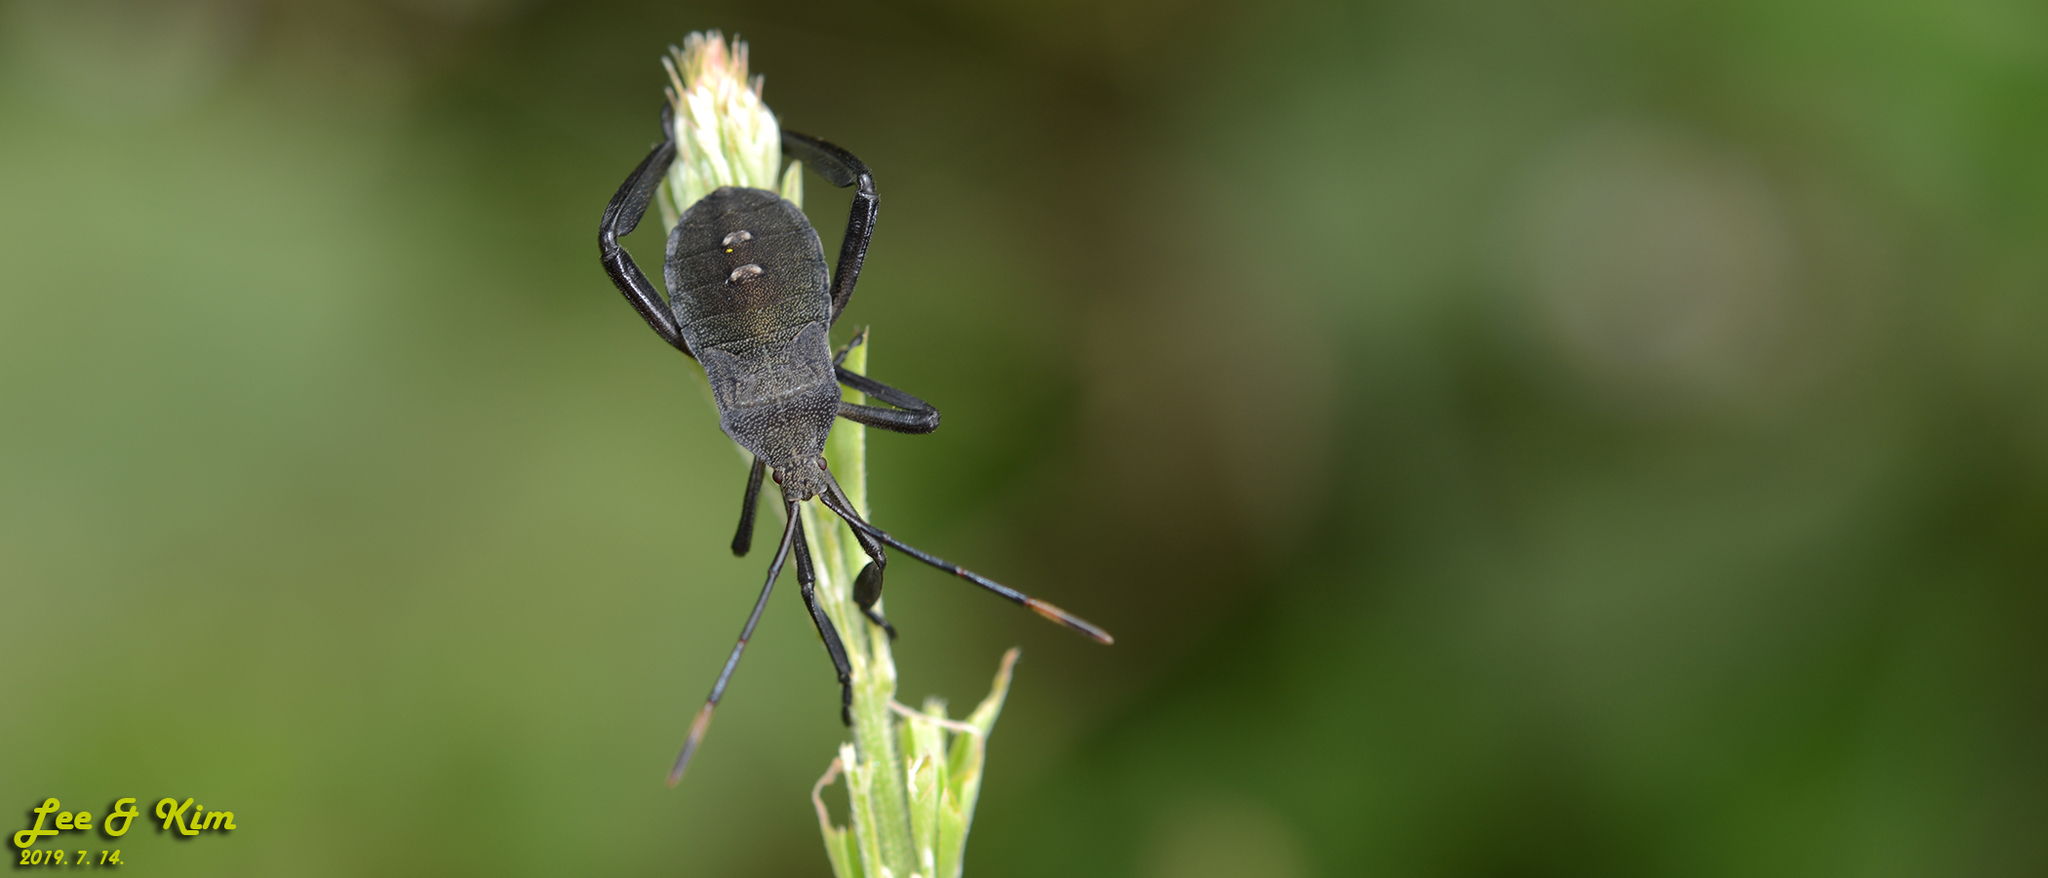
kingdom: Animalia
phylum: Arthropoda
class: Insecta
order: Hemiptera
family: Coreidae
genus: Anoplocnemis
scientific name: Anoplocnemis dallasi
